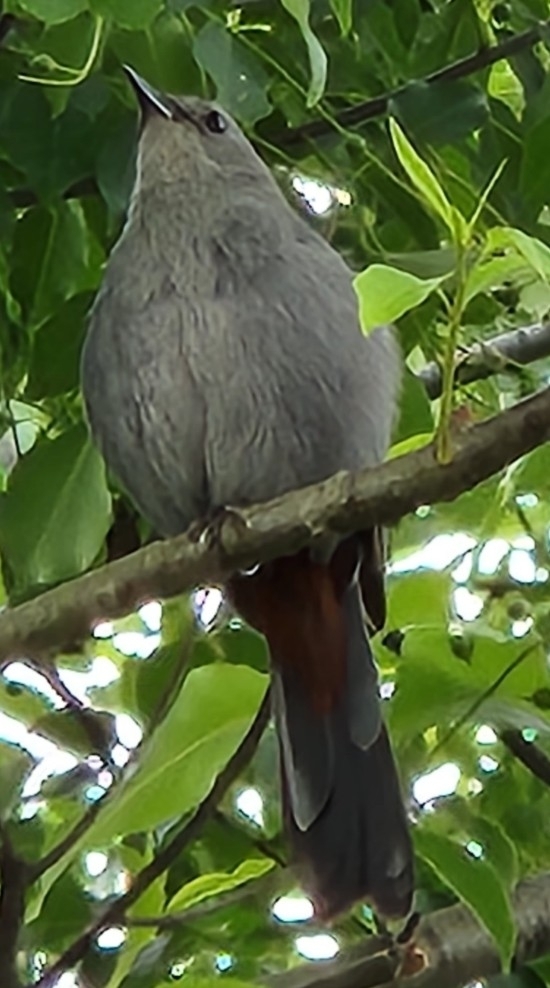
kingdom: Animalia
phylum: Chordata
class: Aves
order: Passeriformes
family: Mimidae
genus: Dumetella
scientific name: Dumetella carolinensis
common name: Gray catbird
